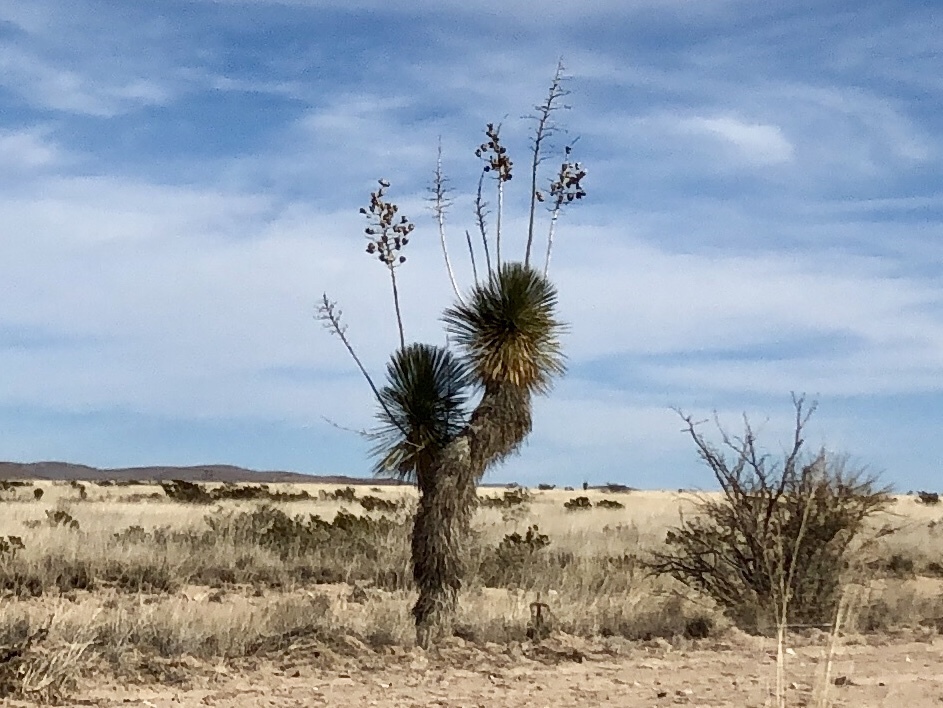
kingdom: Plantae
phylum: Tracheophyta
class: Liliopsida
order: Asparagales
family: Asparagaceae
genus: Yucca
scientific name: Yucca elata
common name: Palmella
